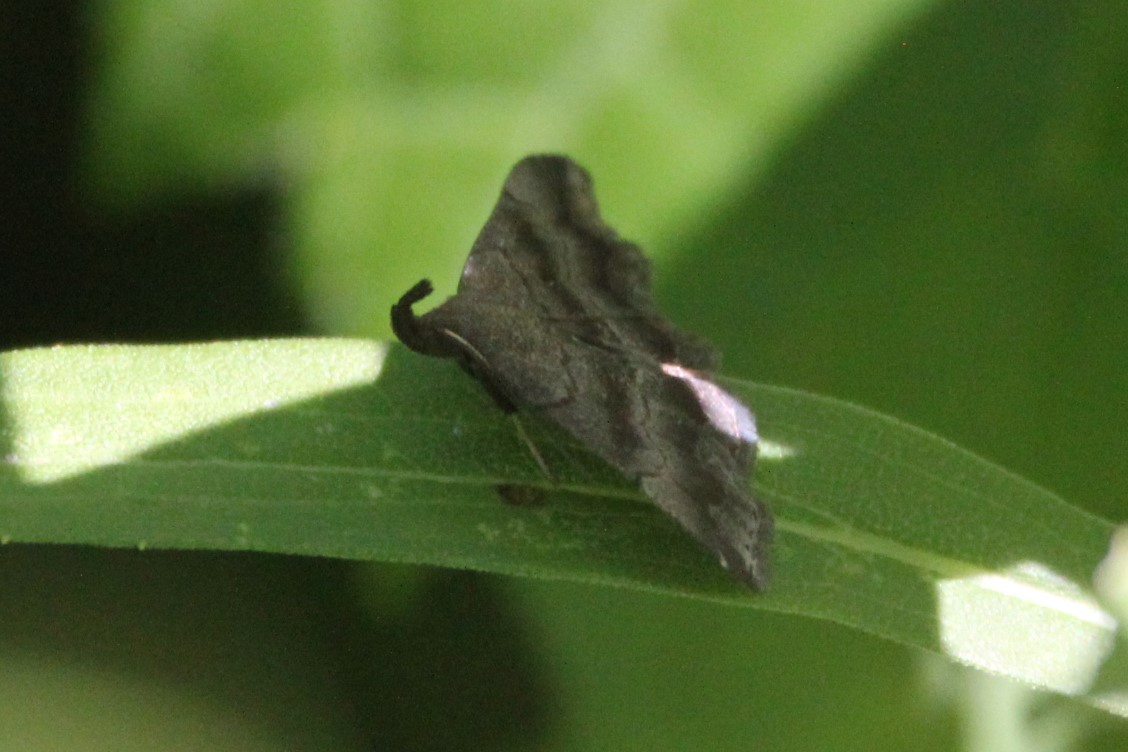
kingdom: Animalia
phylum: Arthropoda
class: Insecta
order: Lepidoptera
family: Erebidae
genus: Phalaenostola
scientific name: Phalaenostola larentioides
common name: Black-banded owlet
